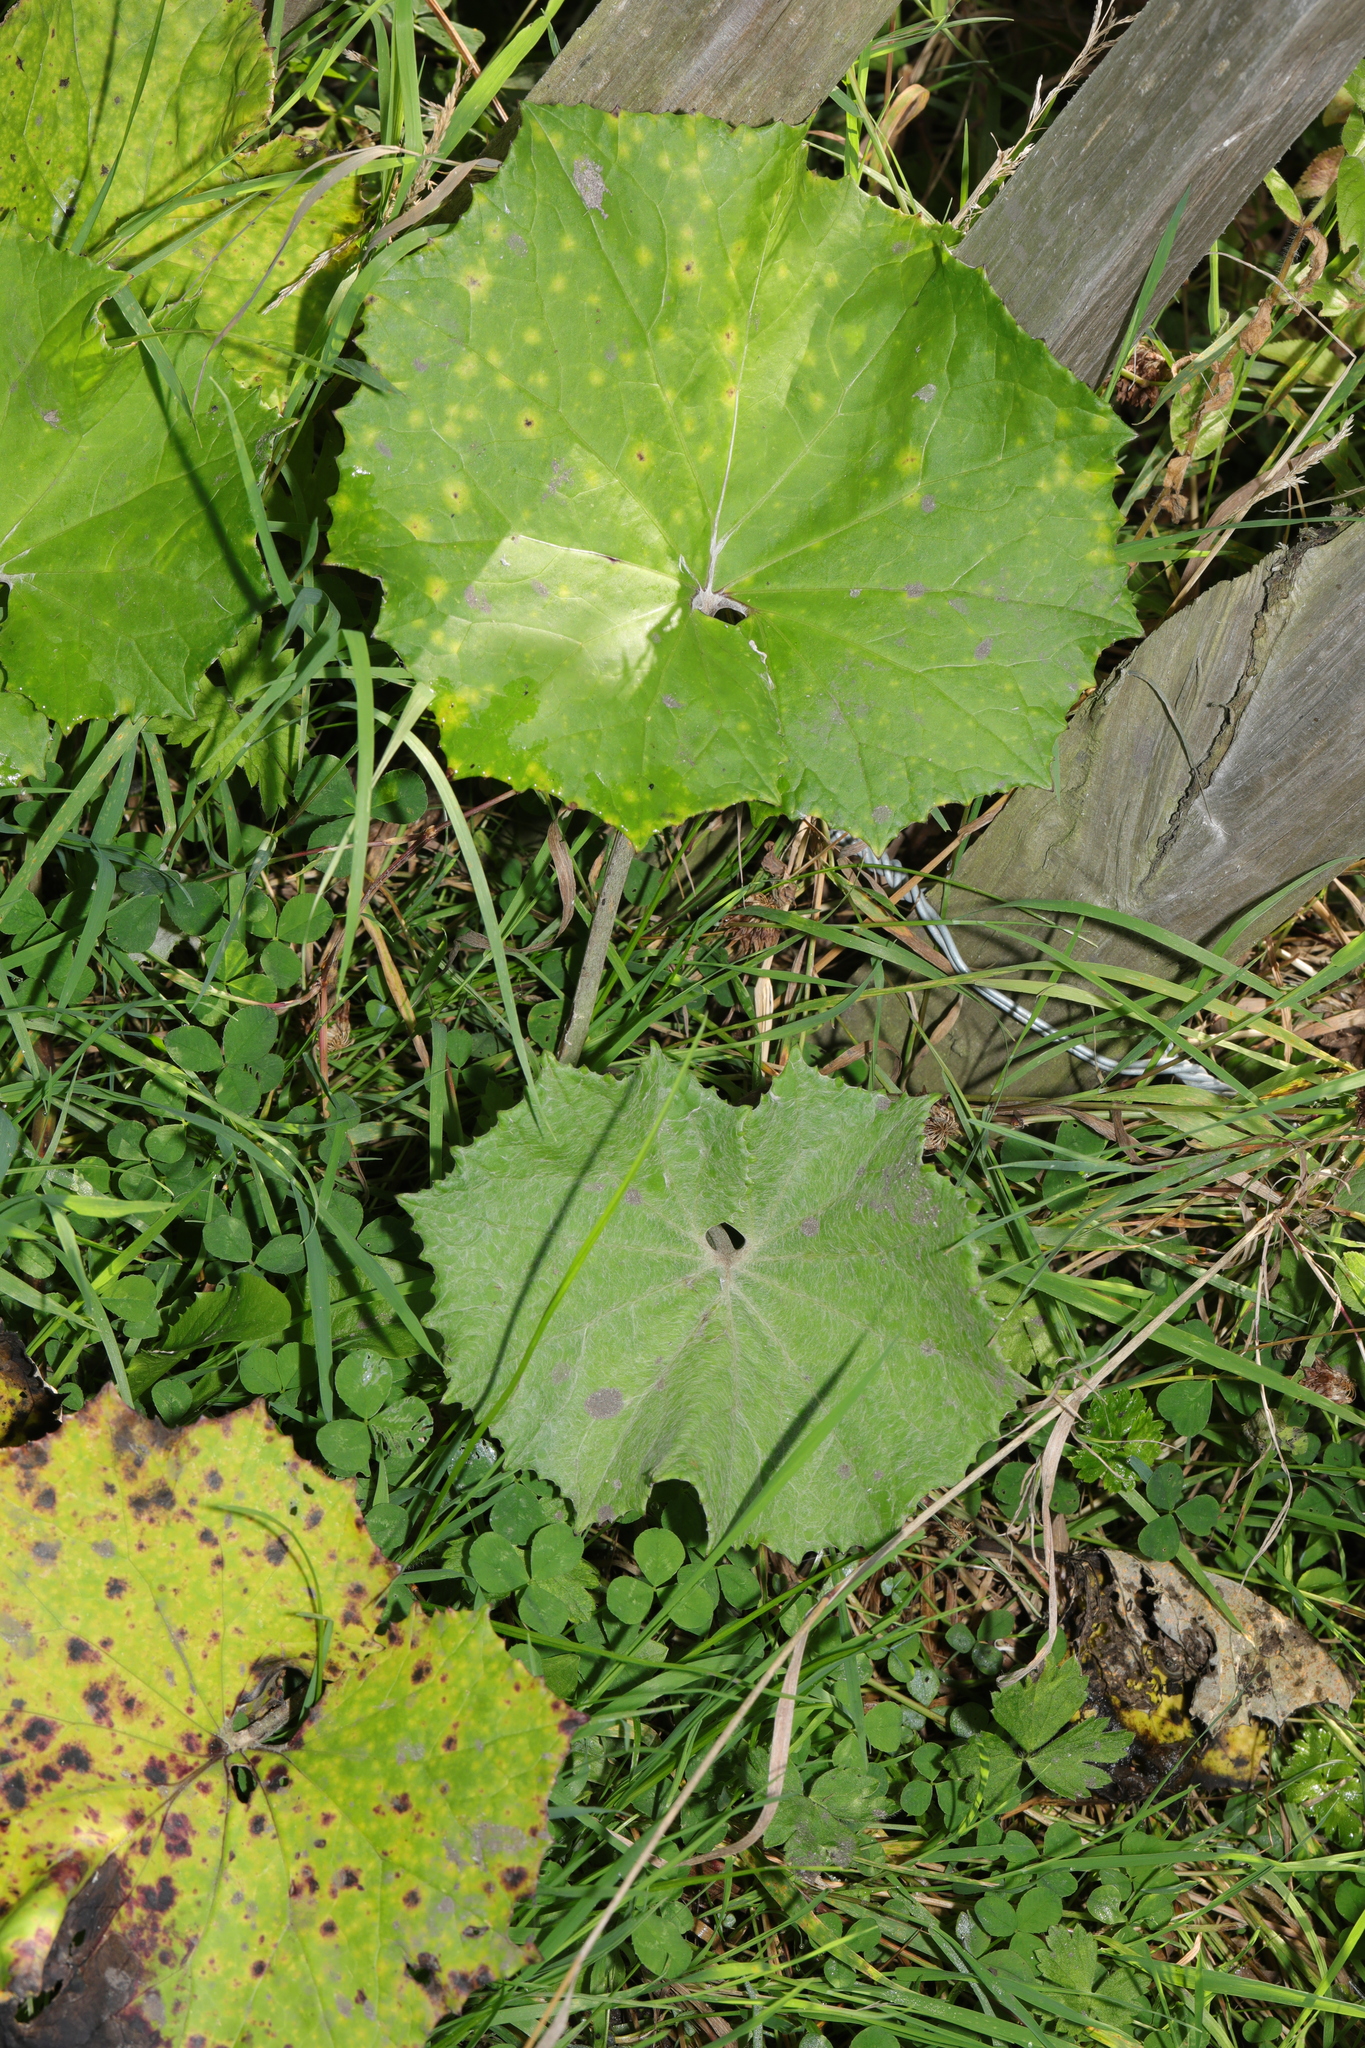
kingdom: Plantae
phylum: Tracheophyta
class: Magnoliopsida
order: Asterales
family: Asteraceae
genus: Tussilago
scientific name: Tussilago farfara
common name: Coltsfoot
